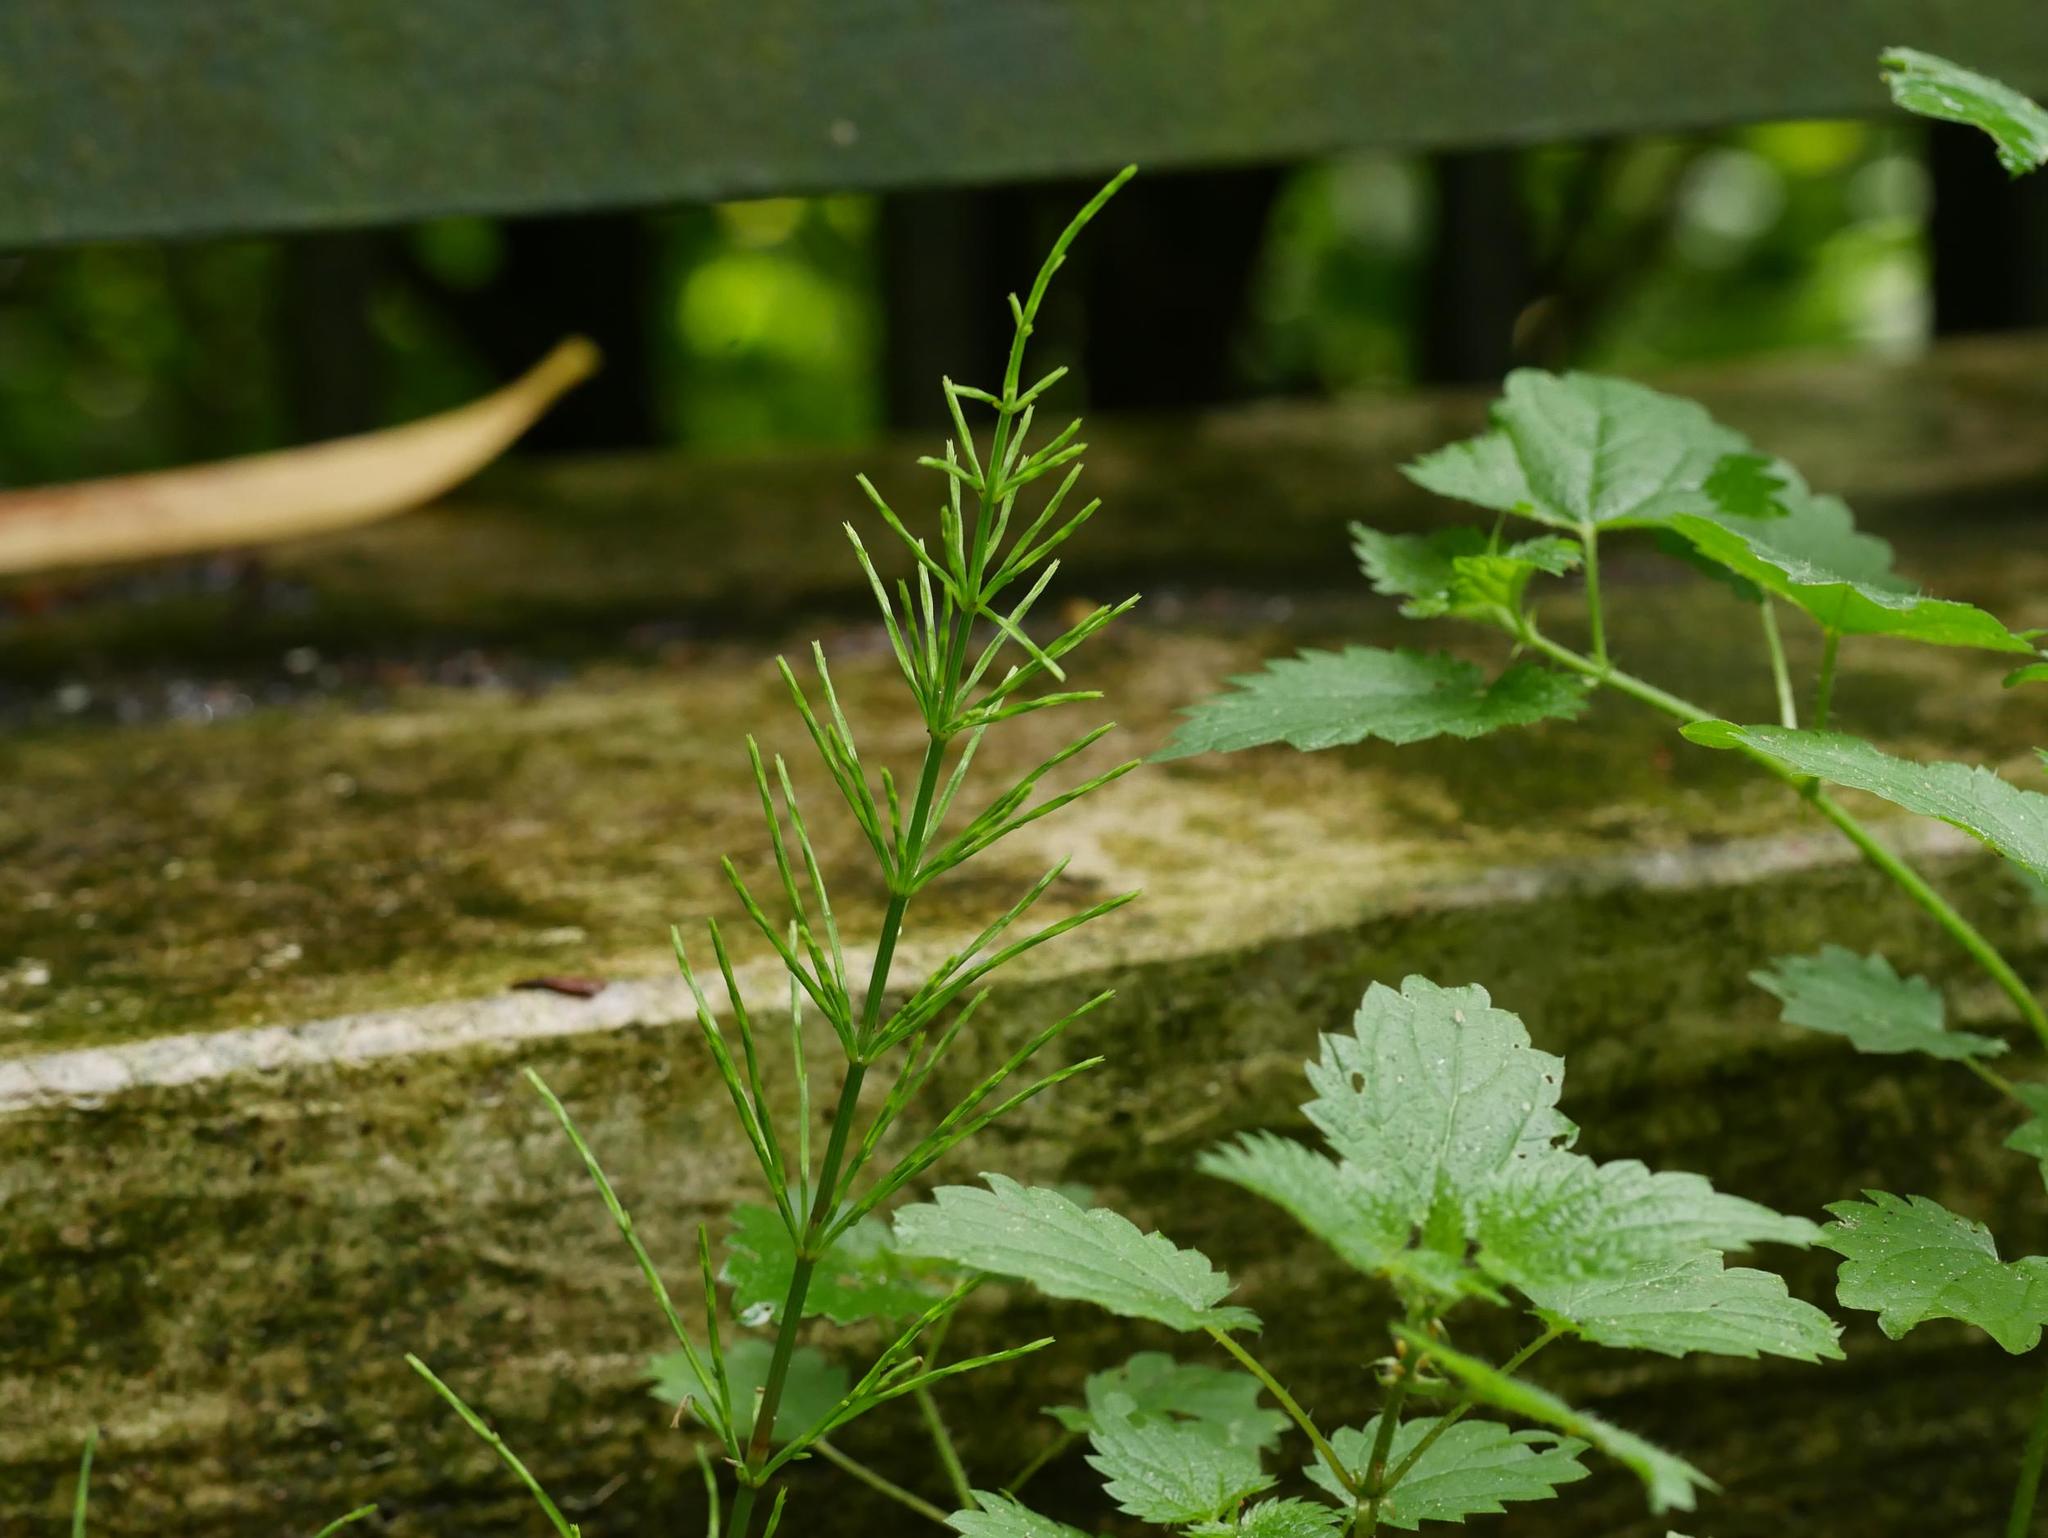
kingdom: Plantae
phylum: Tracheophyta
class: Polypodiopsida
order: Equisetales
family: Equisetaceae
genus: Equisetum
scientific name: Equisetum arvense
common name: Field horsetail
